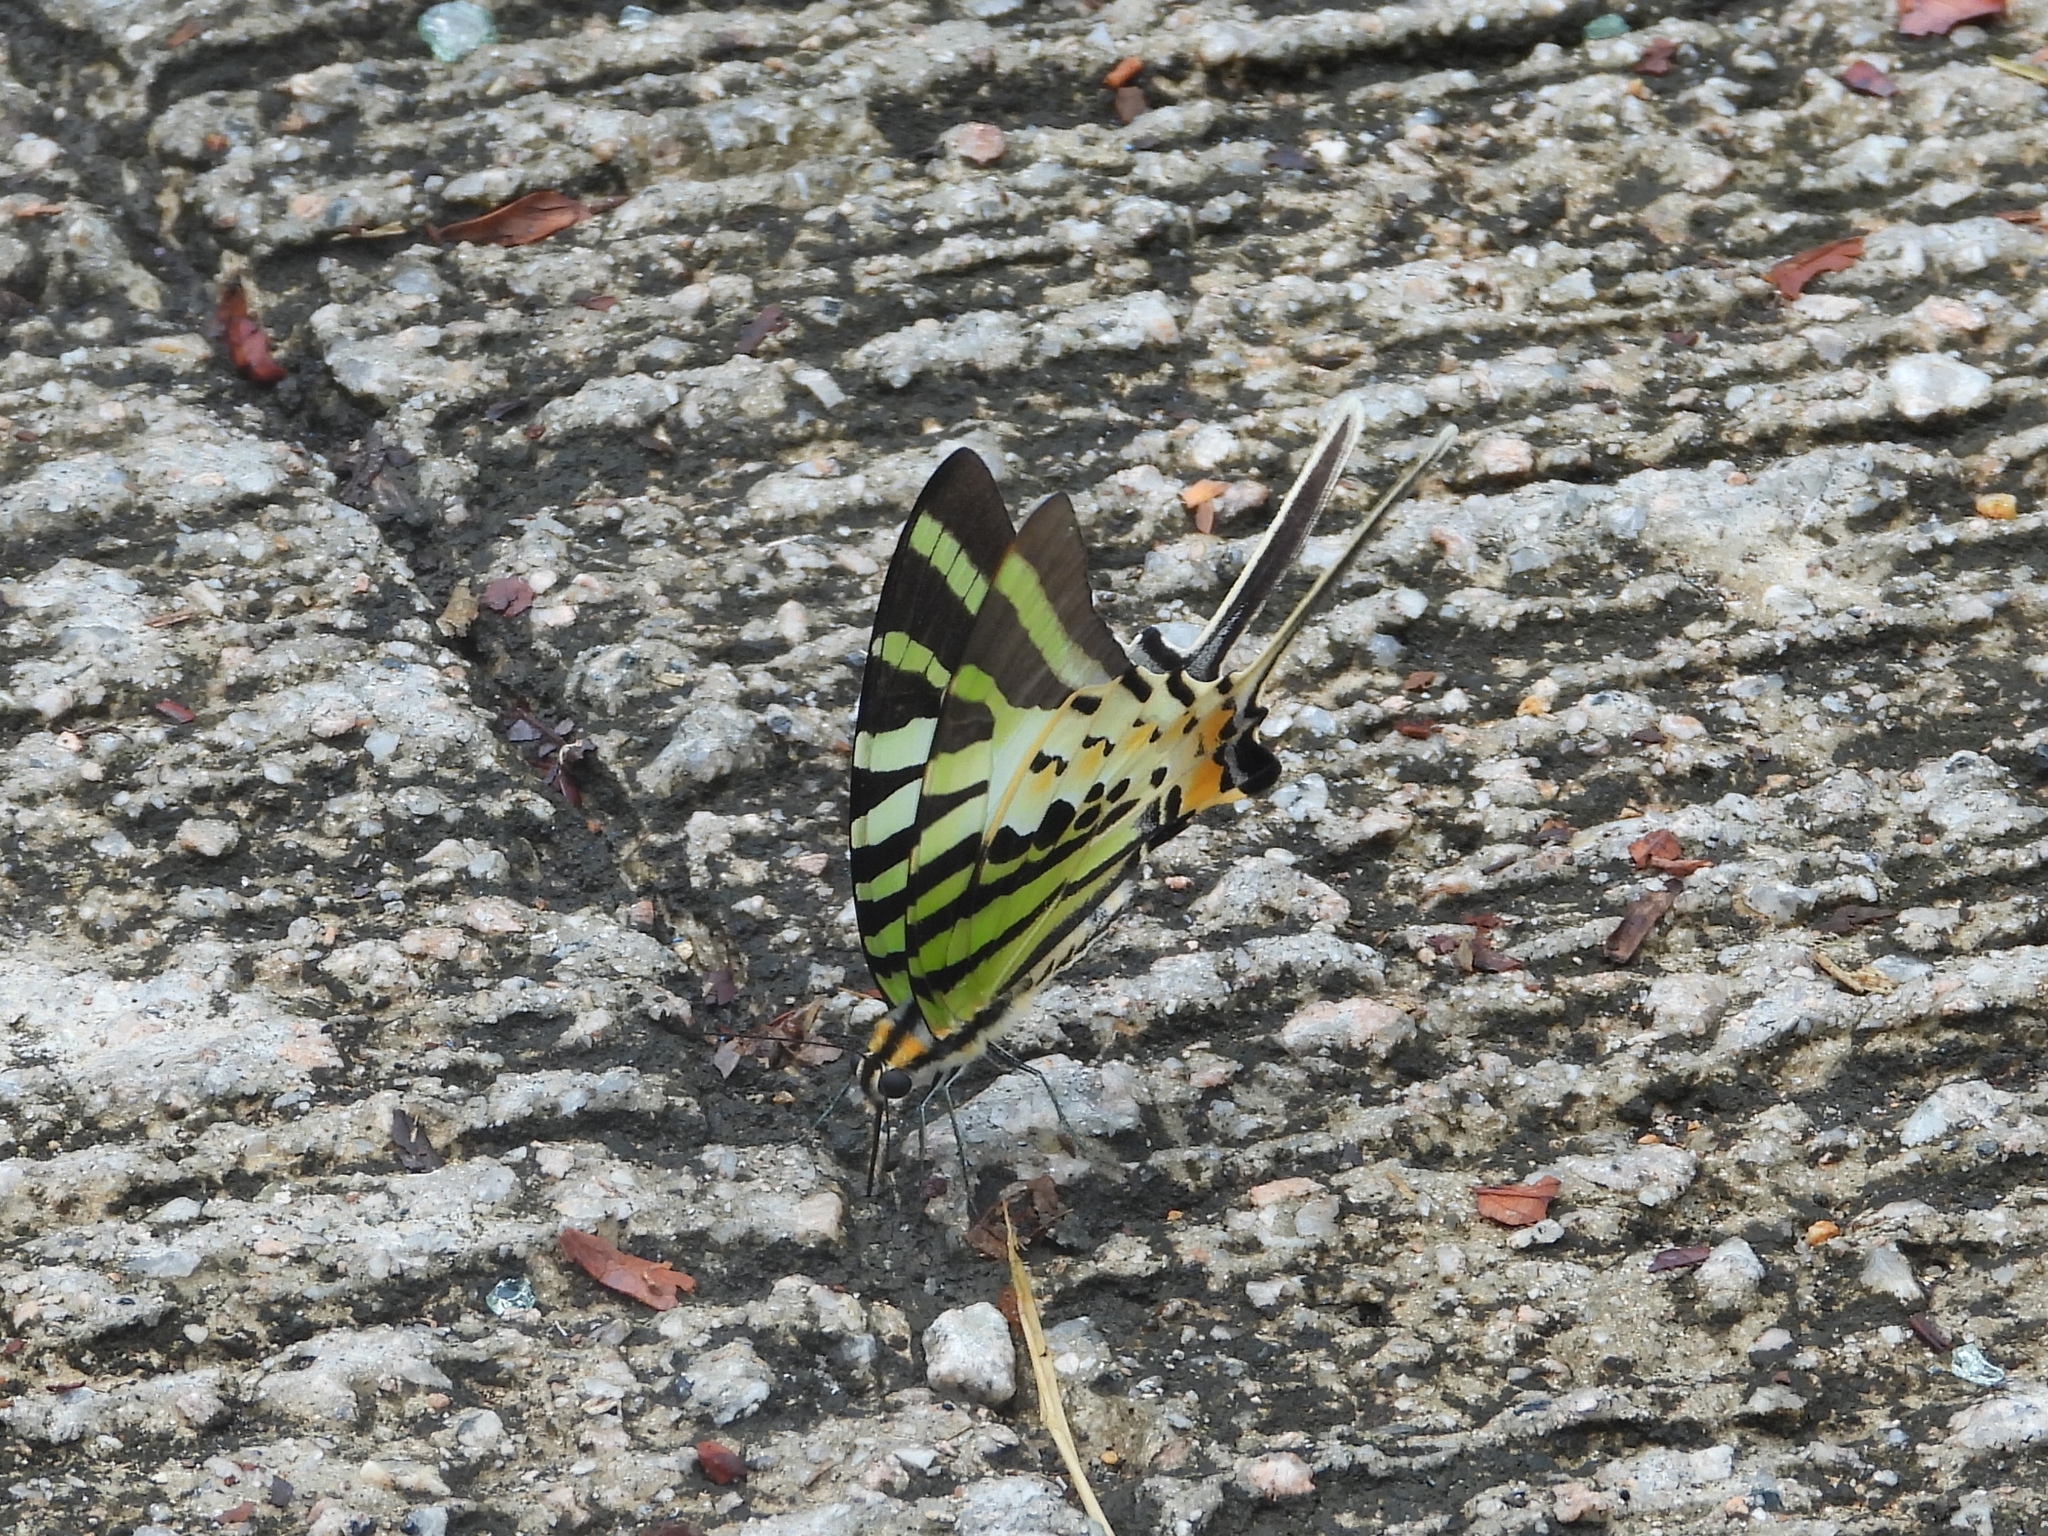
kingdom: Animalia
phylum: Arthropoda
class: Insecta
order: Lepidoptera
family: Papilionidae
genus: Graphium
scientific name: Graphium antiphates
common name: Fivebar swordtail
